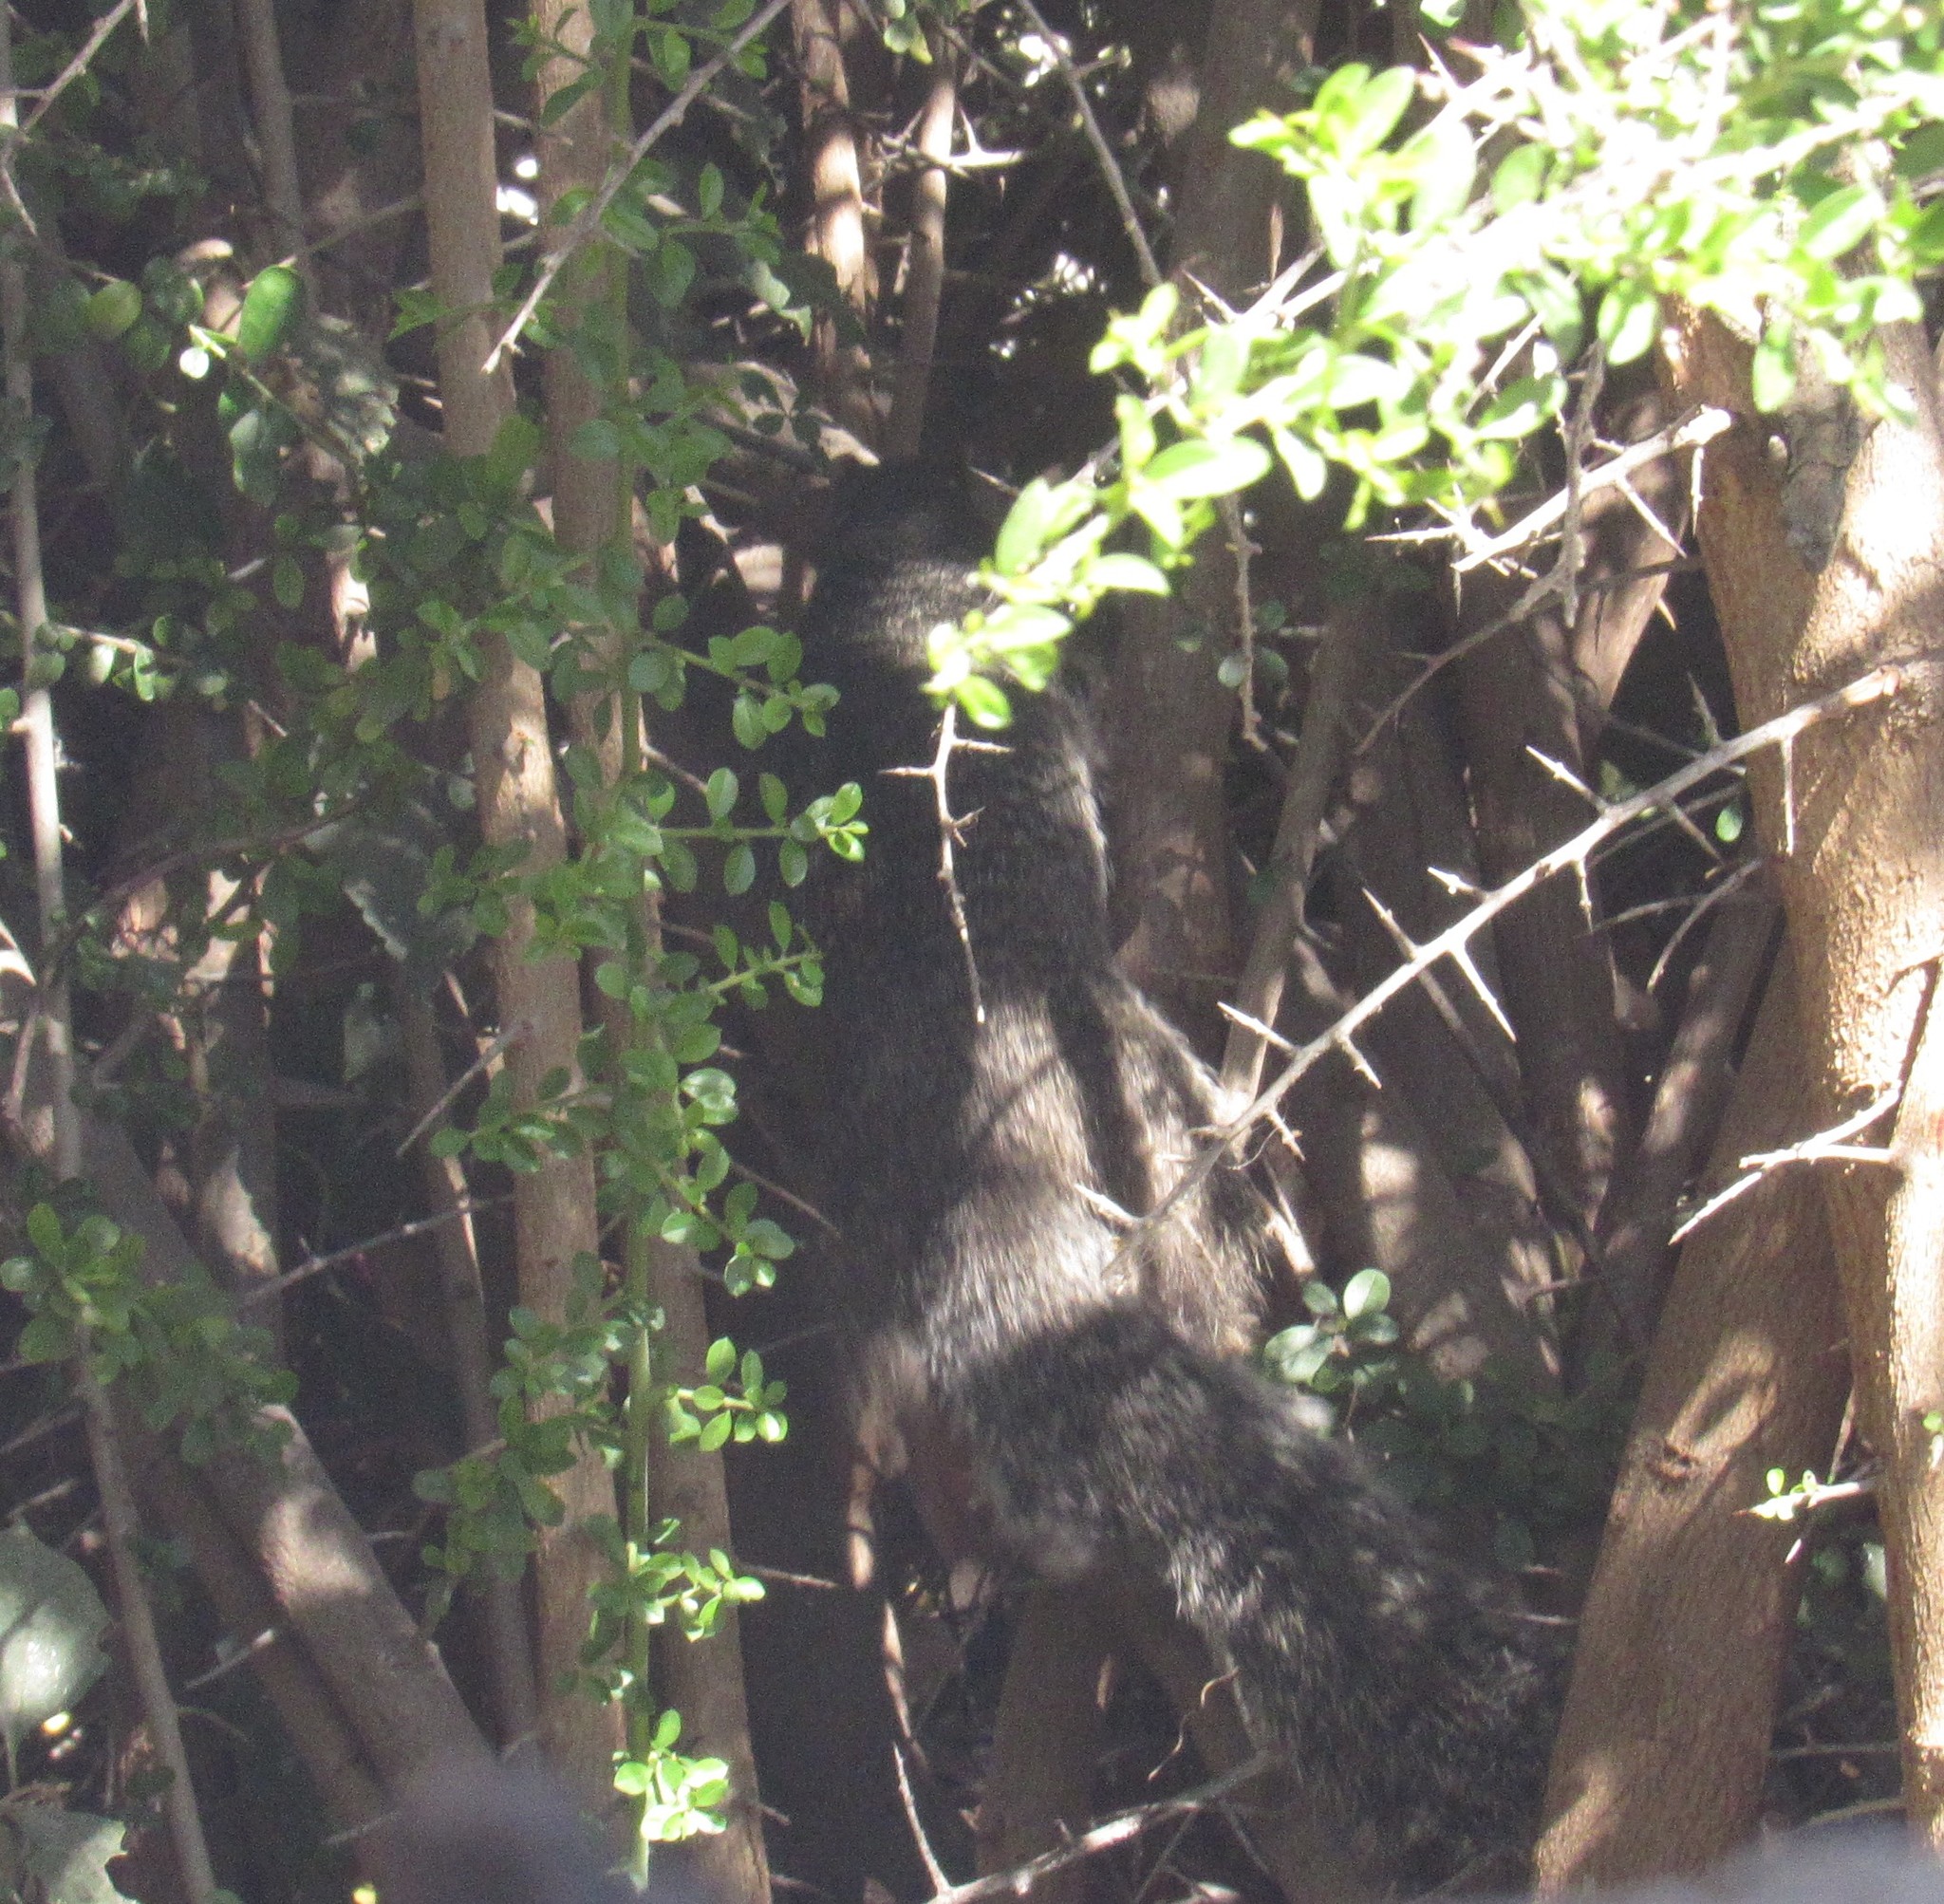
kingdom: Animalia
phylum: Chordata
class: Mammalia
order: Rodentia
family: Sciuridae
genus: Otospermophilus
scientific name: Otospermophilus variegatus
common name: Rock squirrel
